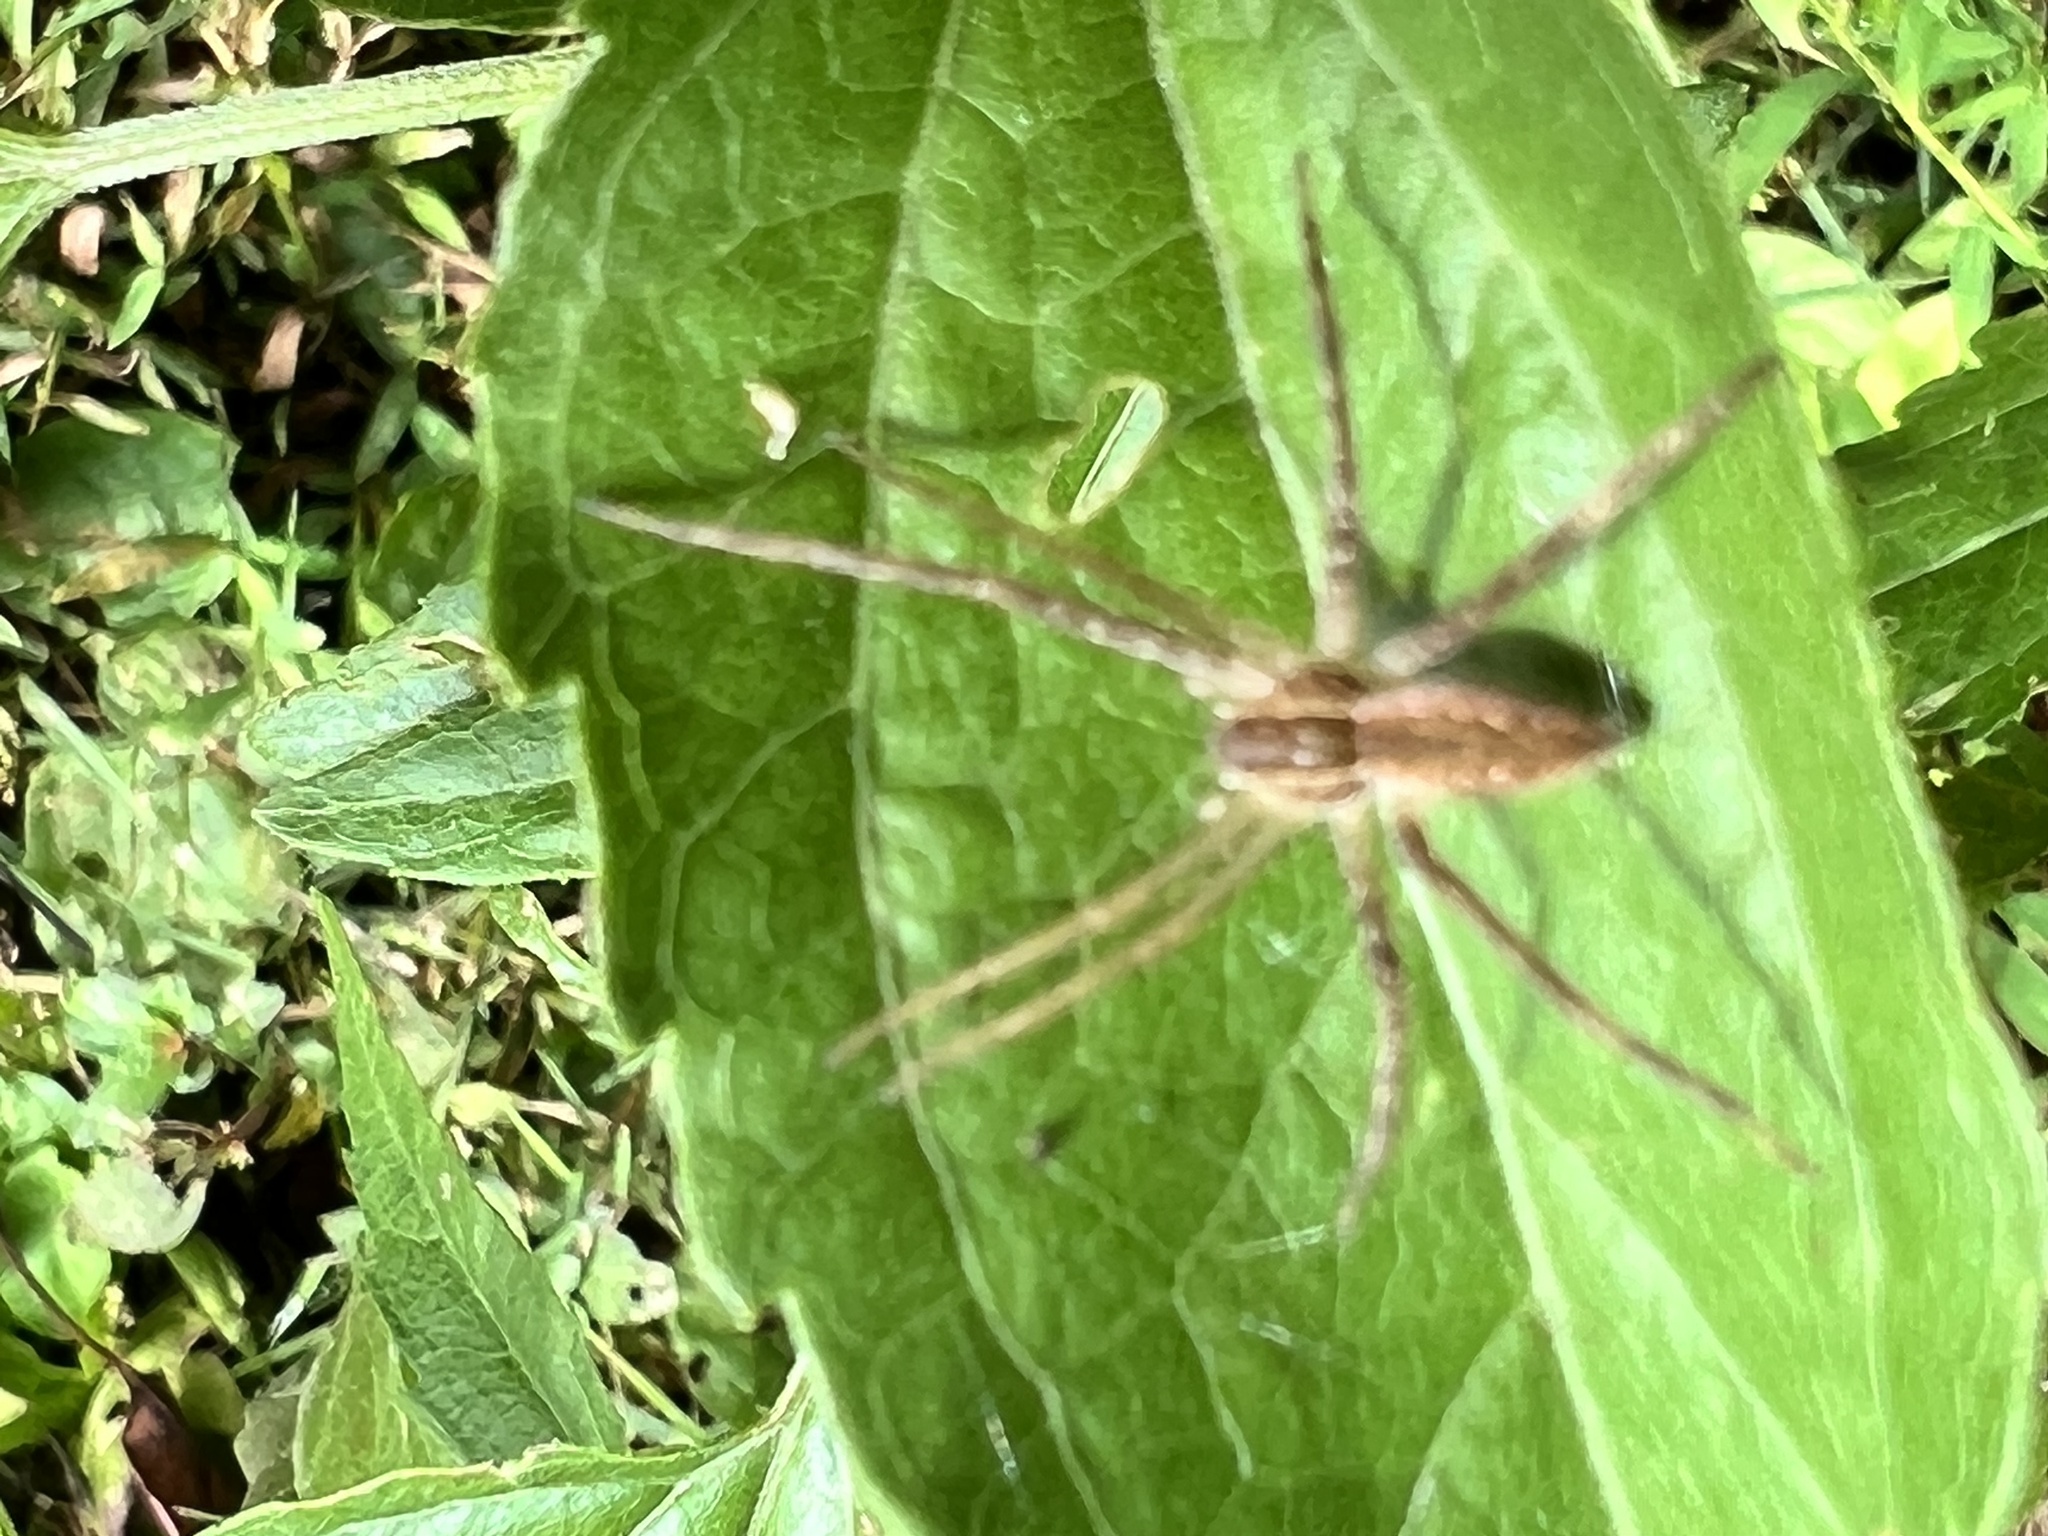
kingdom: Animalia
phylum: Arthropoda
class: Arachnida
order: Araneae
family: Pisauridae
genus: Pisaurina
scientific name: Pisaurina mira
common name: American nursery web spider
